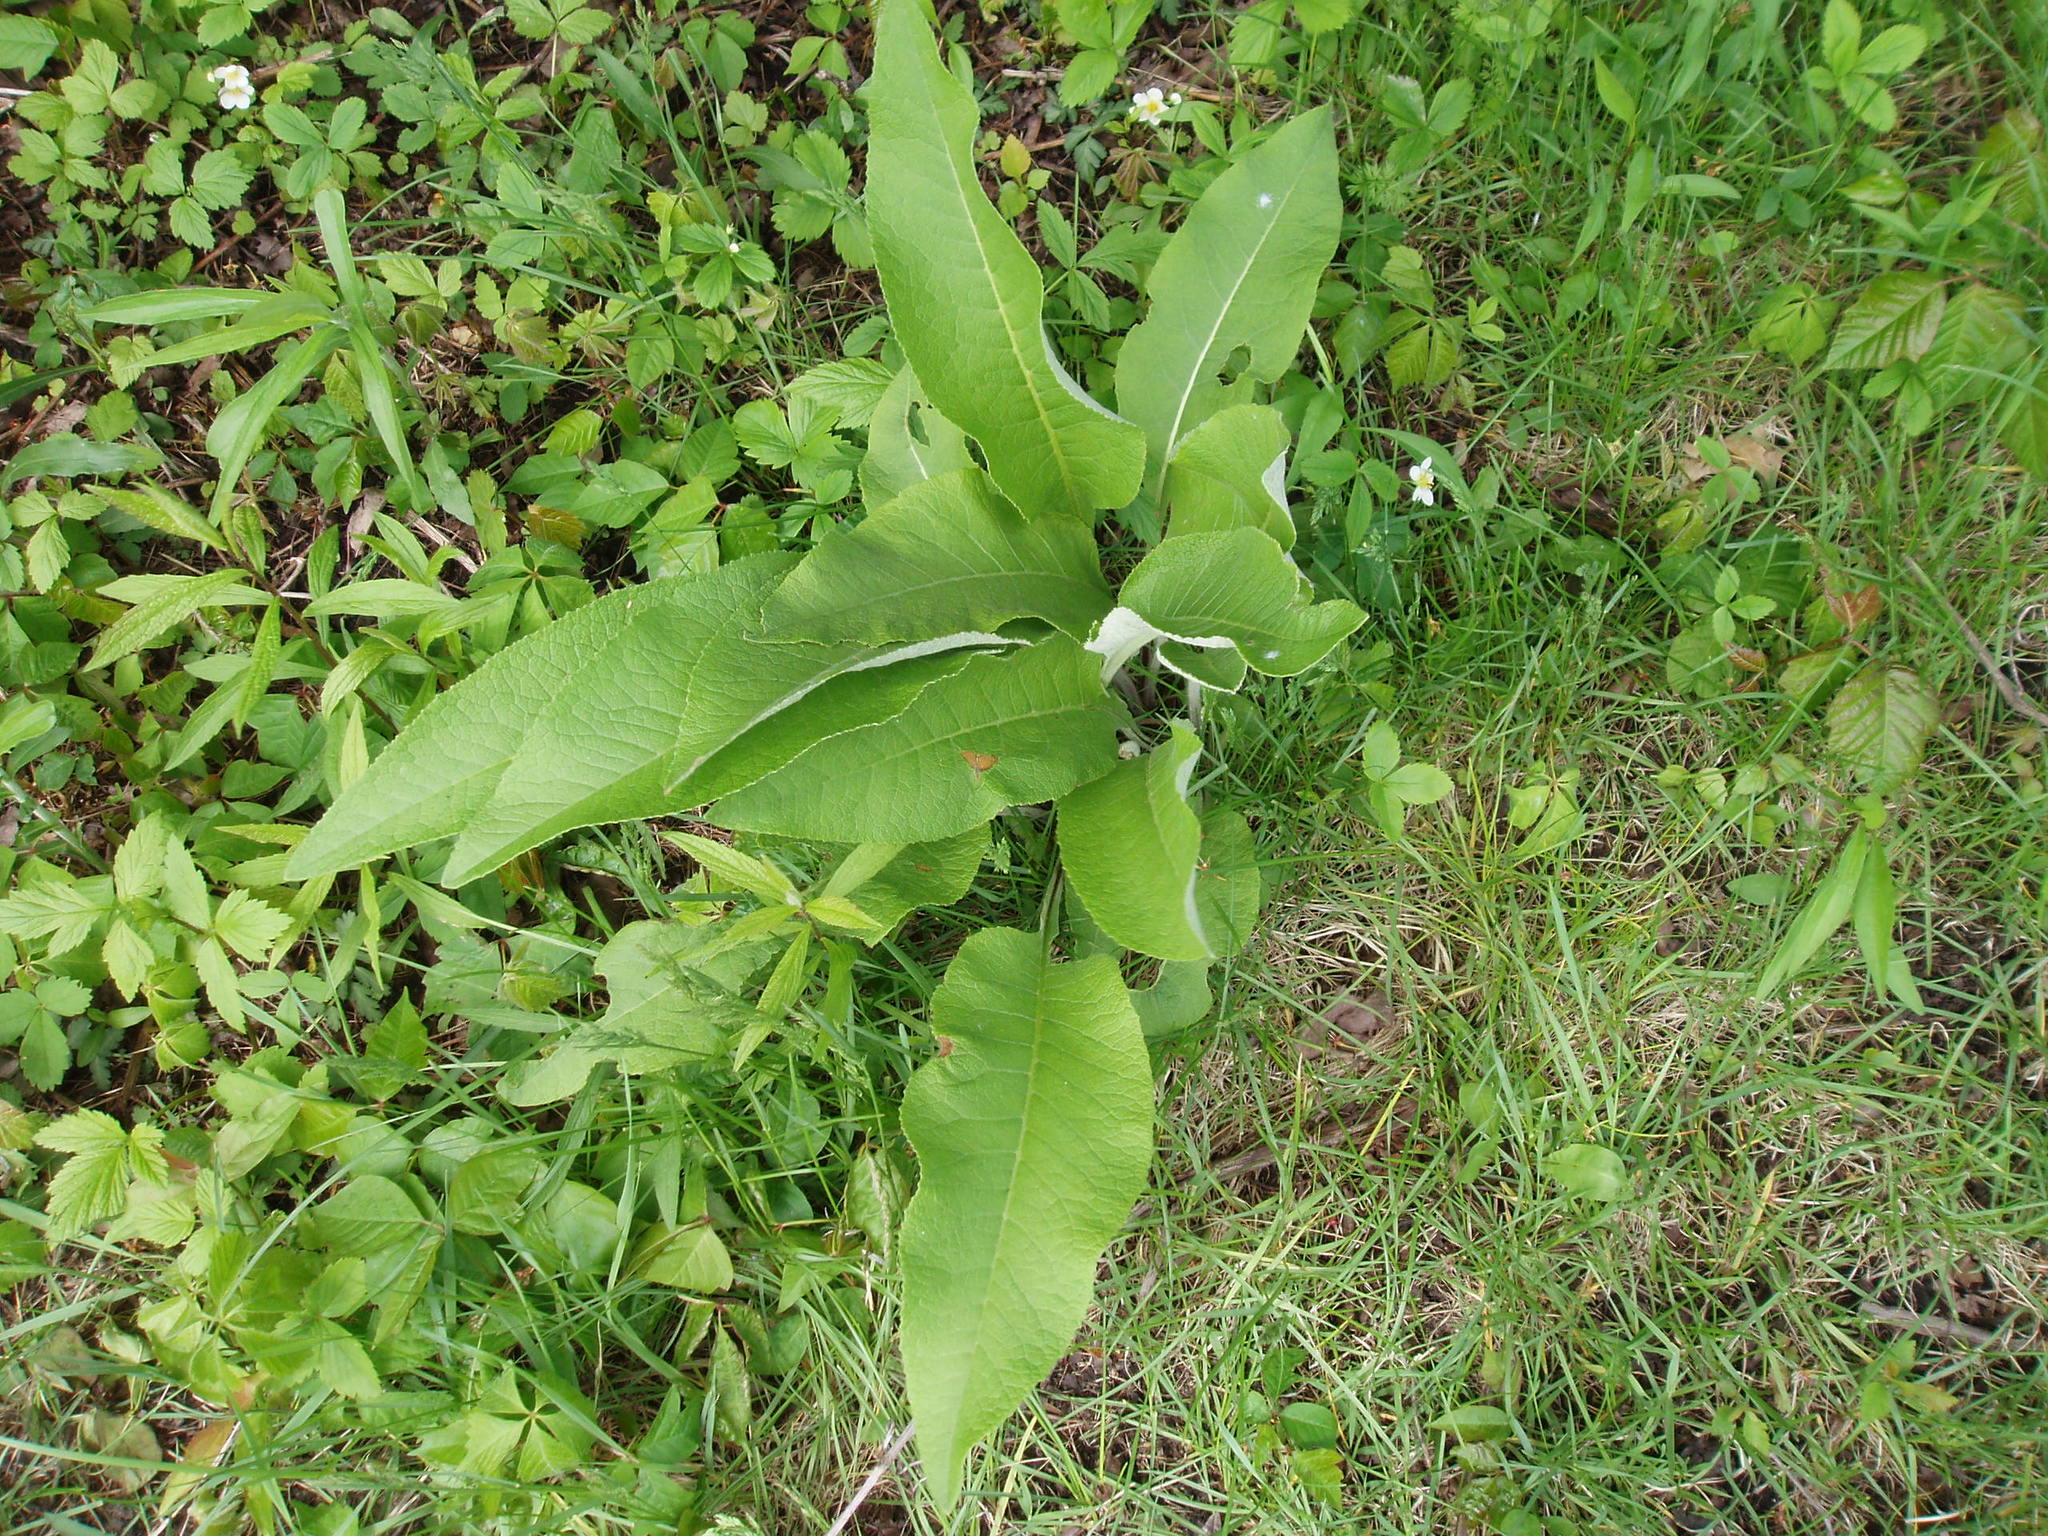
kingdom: Plantae
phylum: Tracheophyta
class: Magnoliopsida
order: Asterales
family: Asteraceae
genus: Inula
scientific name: Inula helenium
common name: Elecampane
